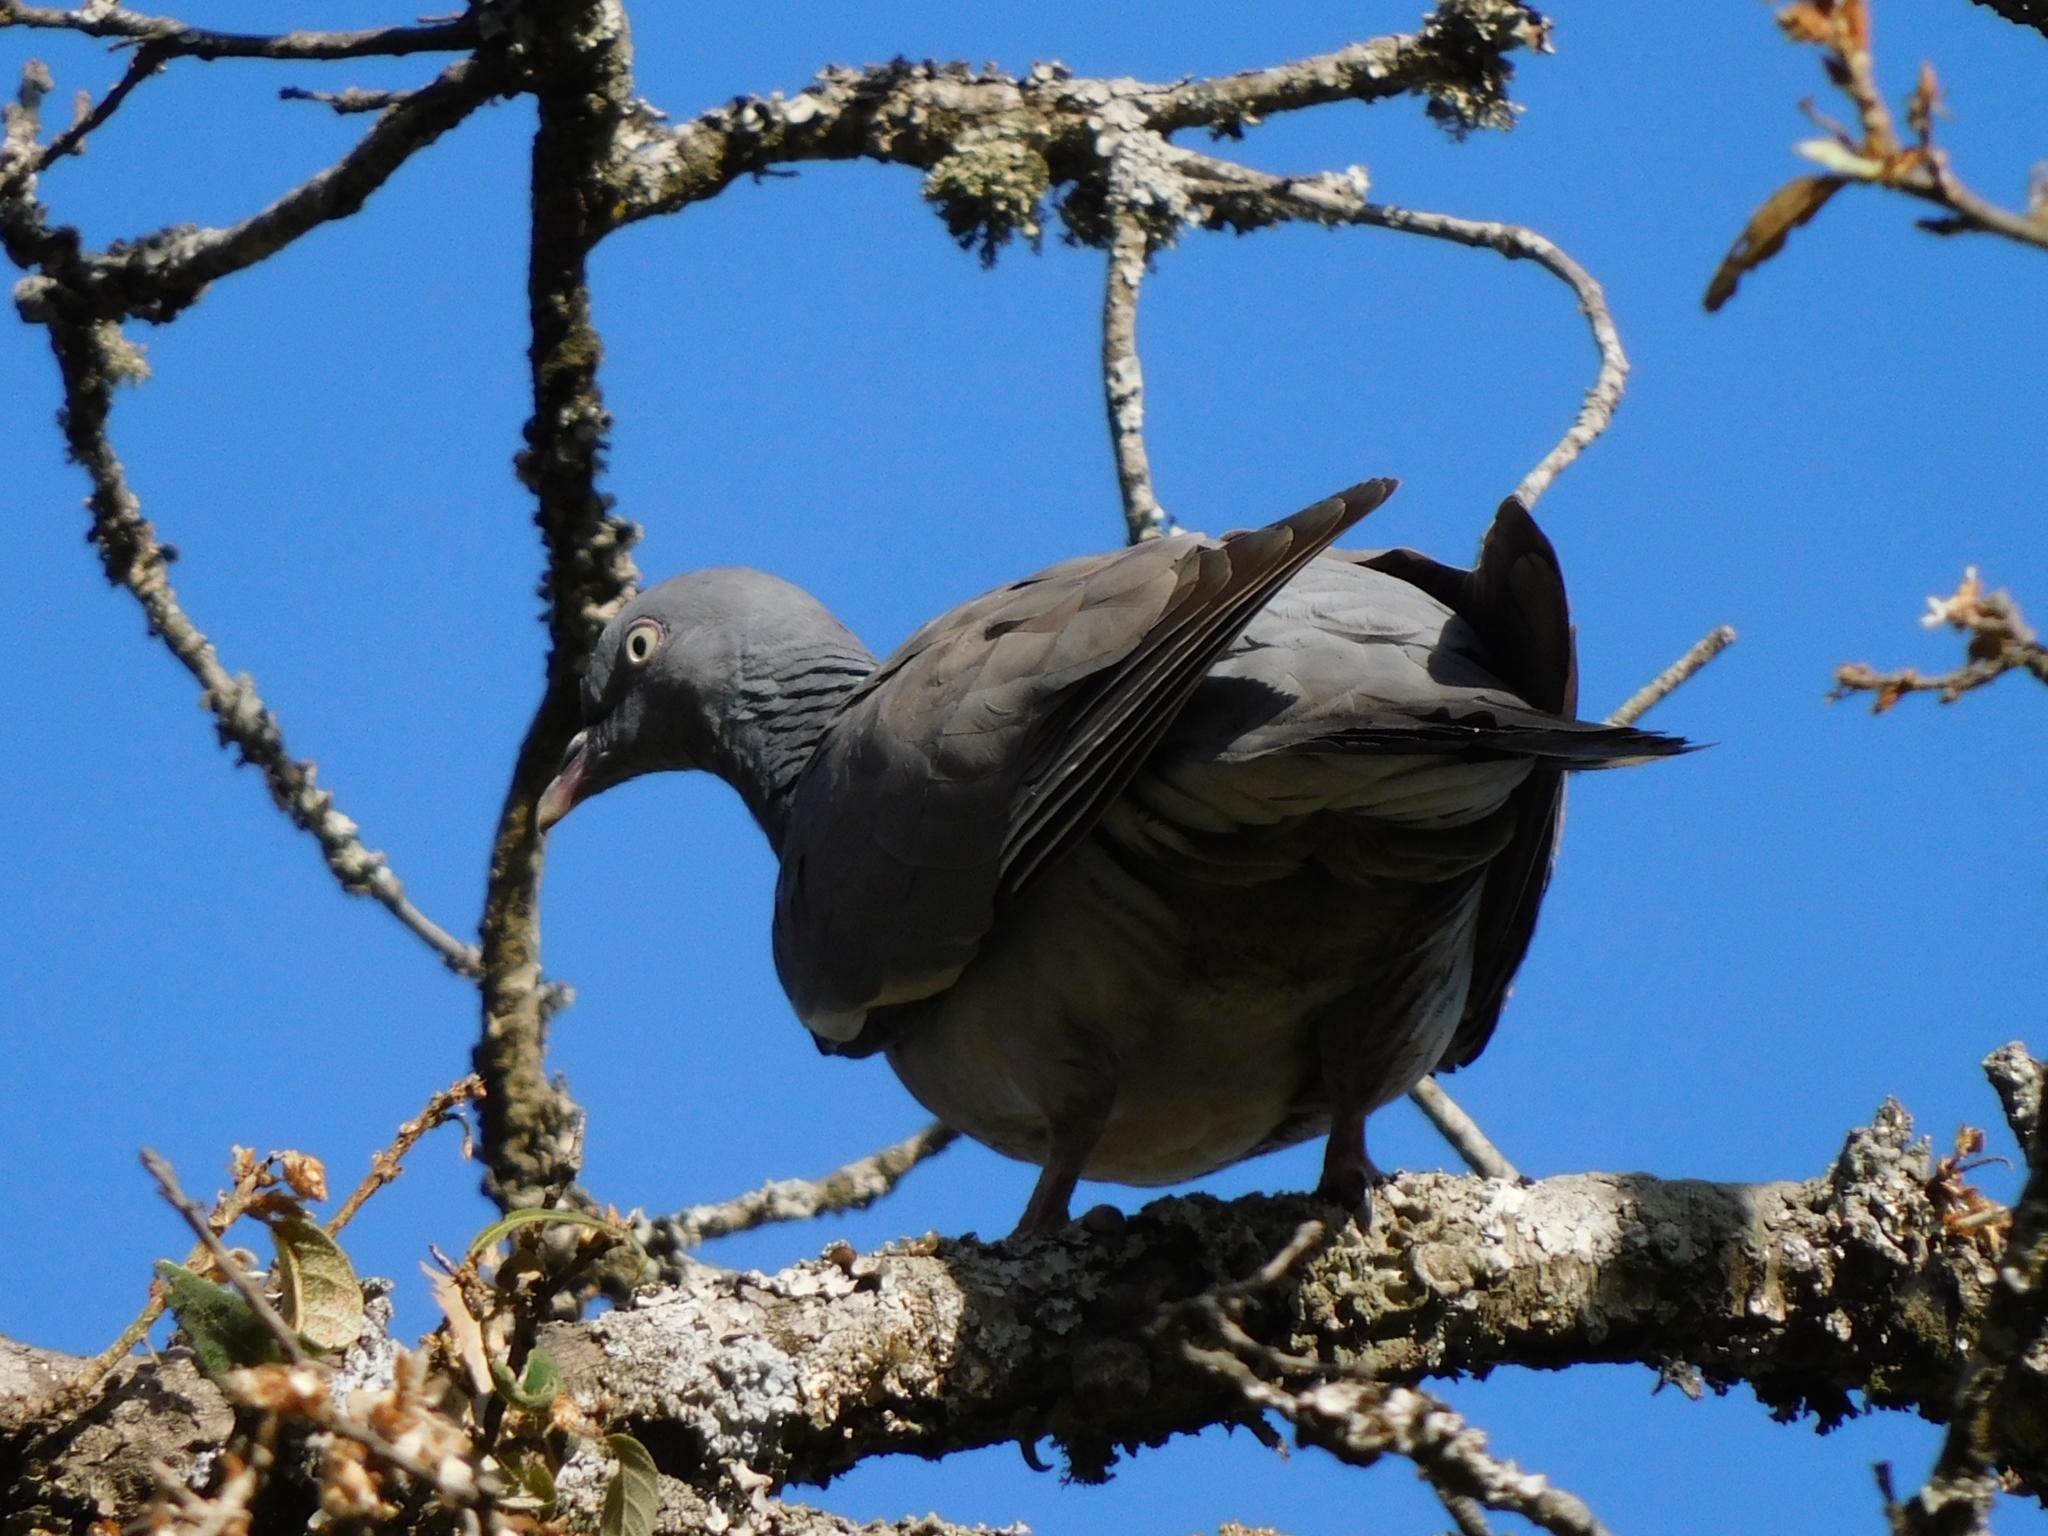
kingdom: Animalia
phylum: Chordata
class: Aves
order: Columbiformes
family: Columbidae
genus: Columba
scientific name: Columba palumbus
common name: Common wood pigeon
